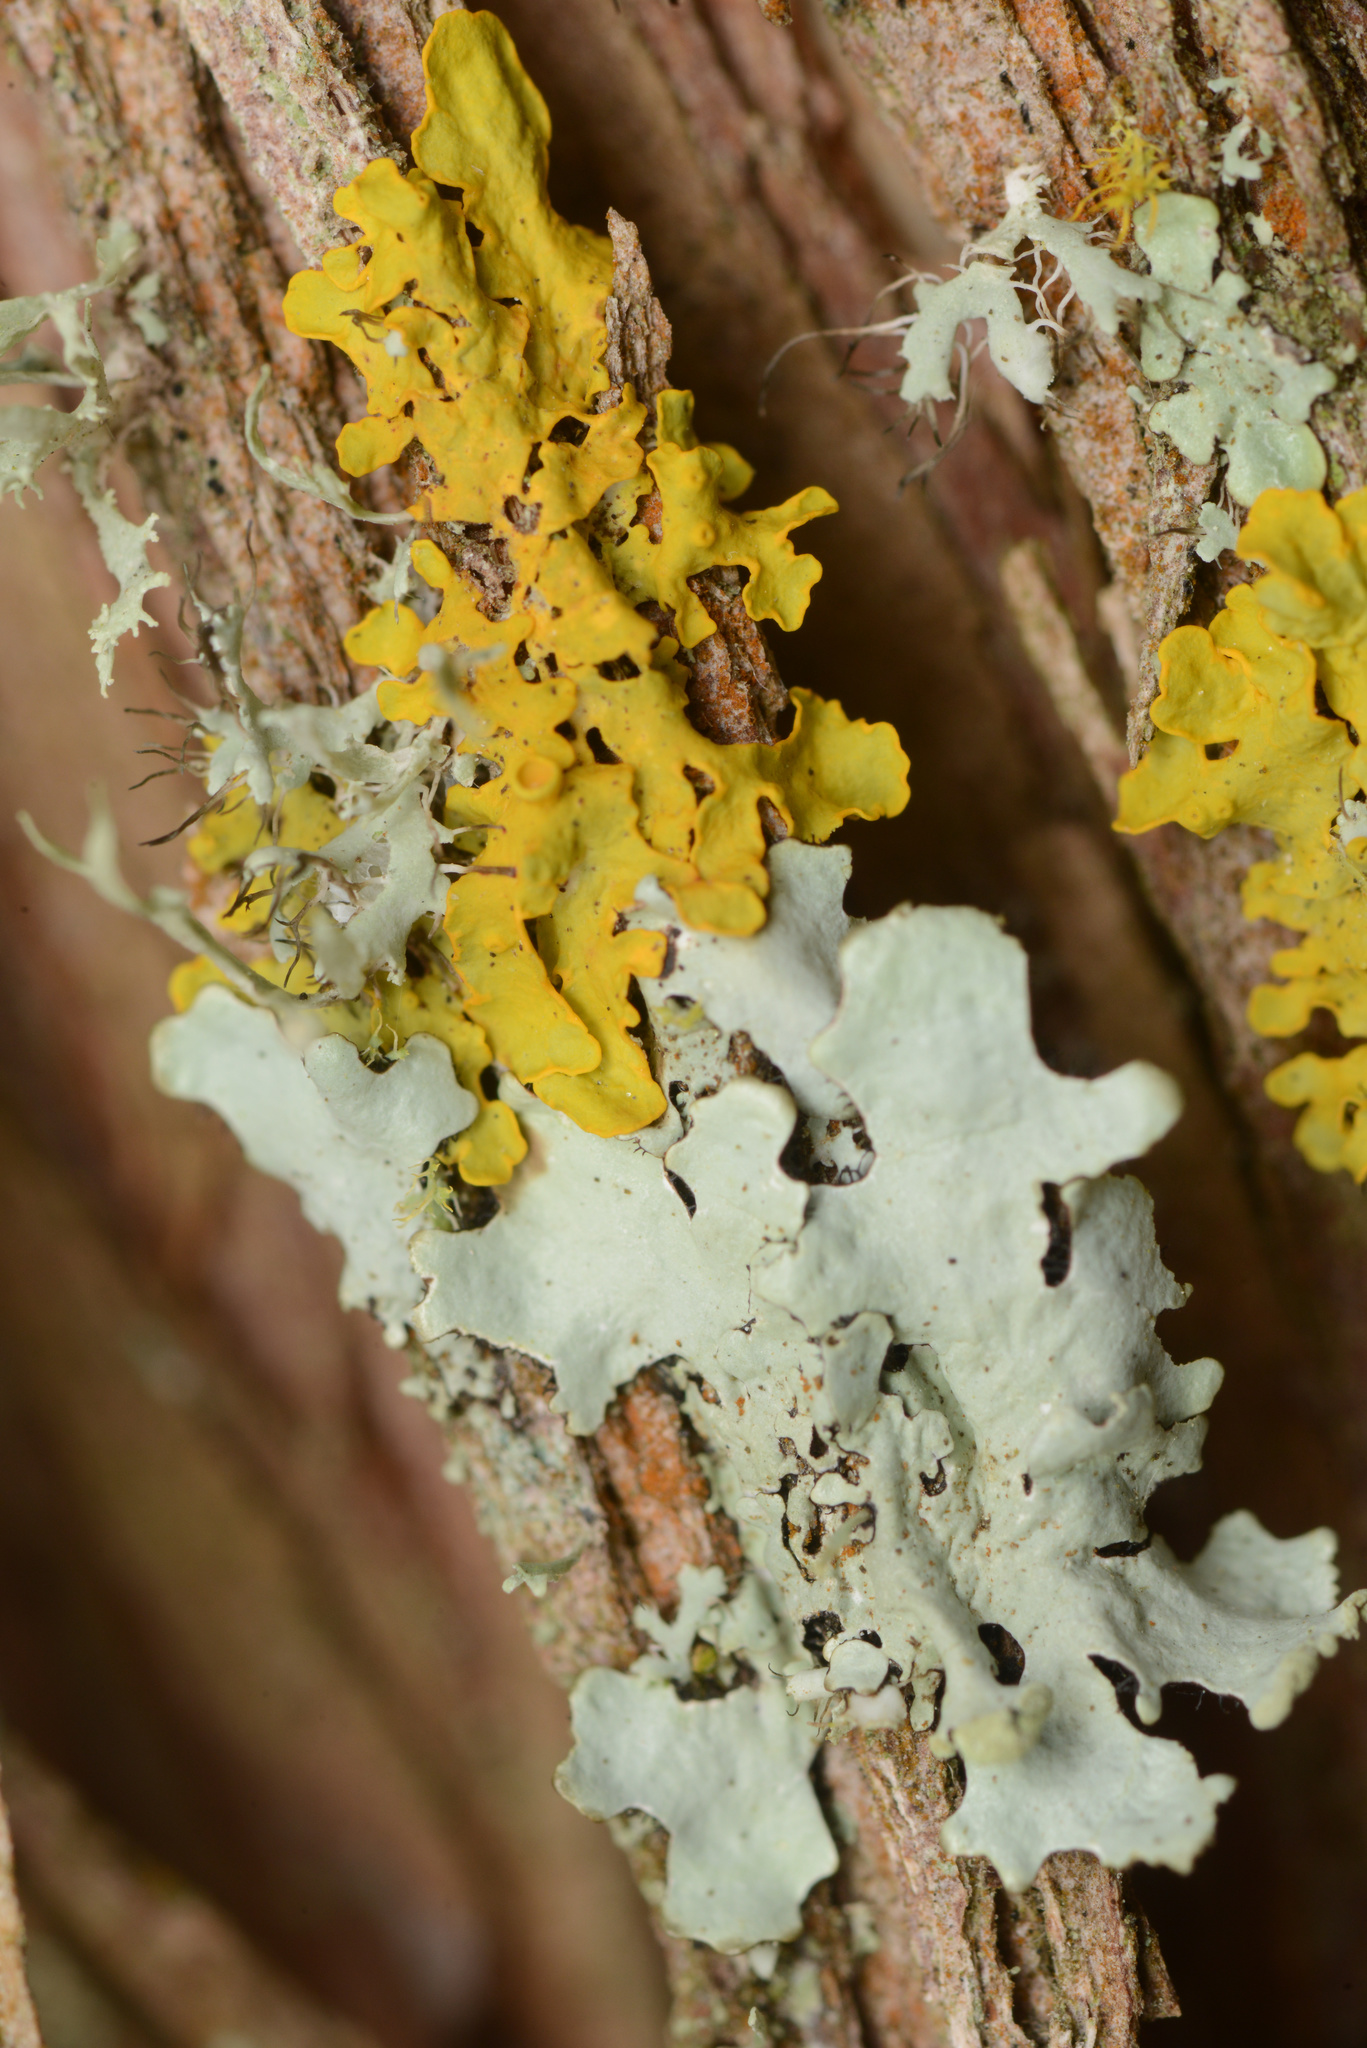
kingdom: Fungi
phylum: Ascomycota
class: Lecanoromycetes
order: Caliciales
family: Physciaceae
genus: Physcia
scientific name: Physcia adscendens
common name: Hooded rosette lichen
